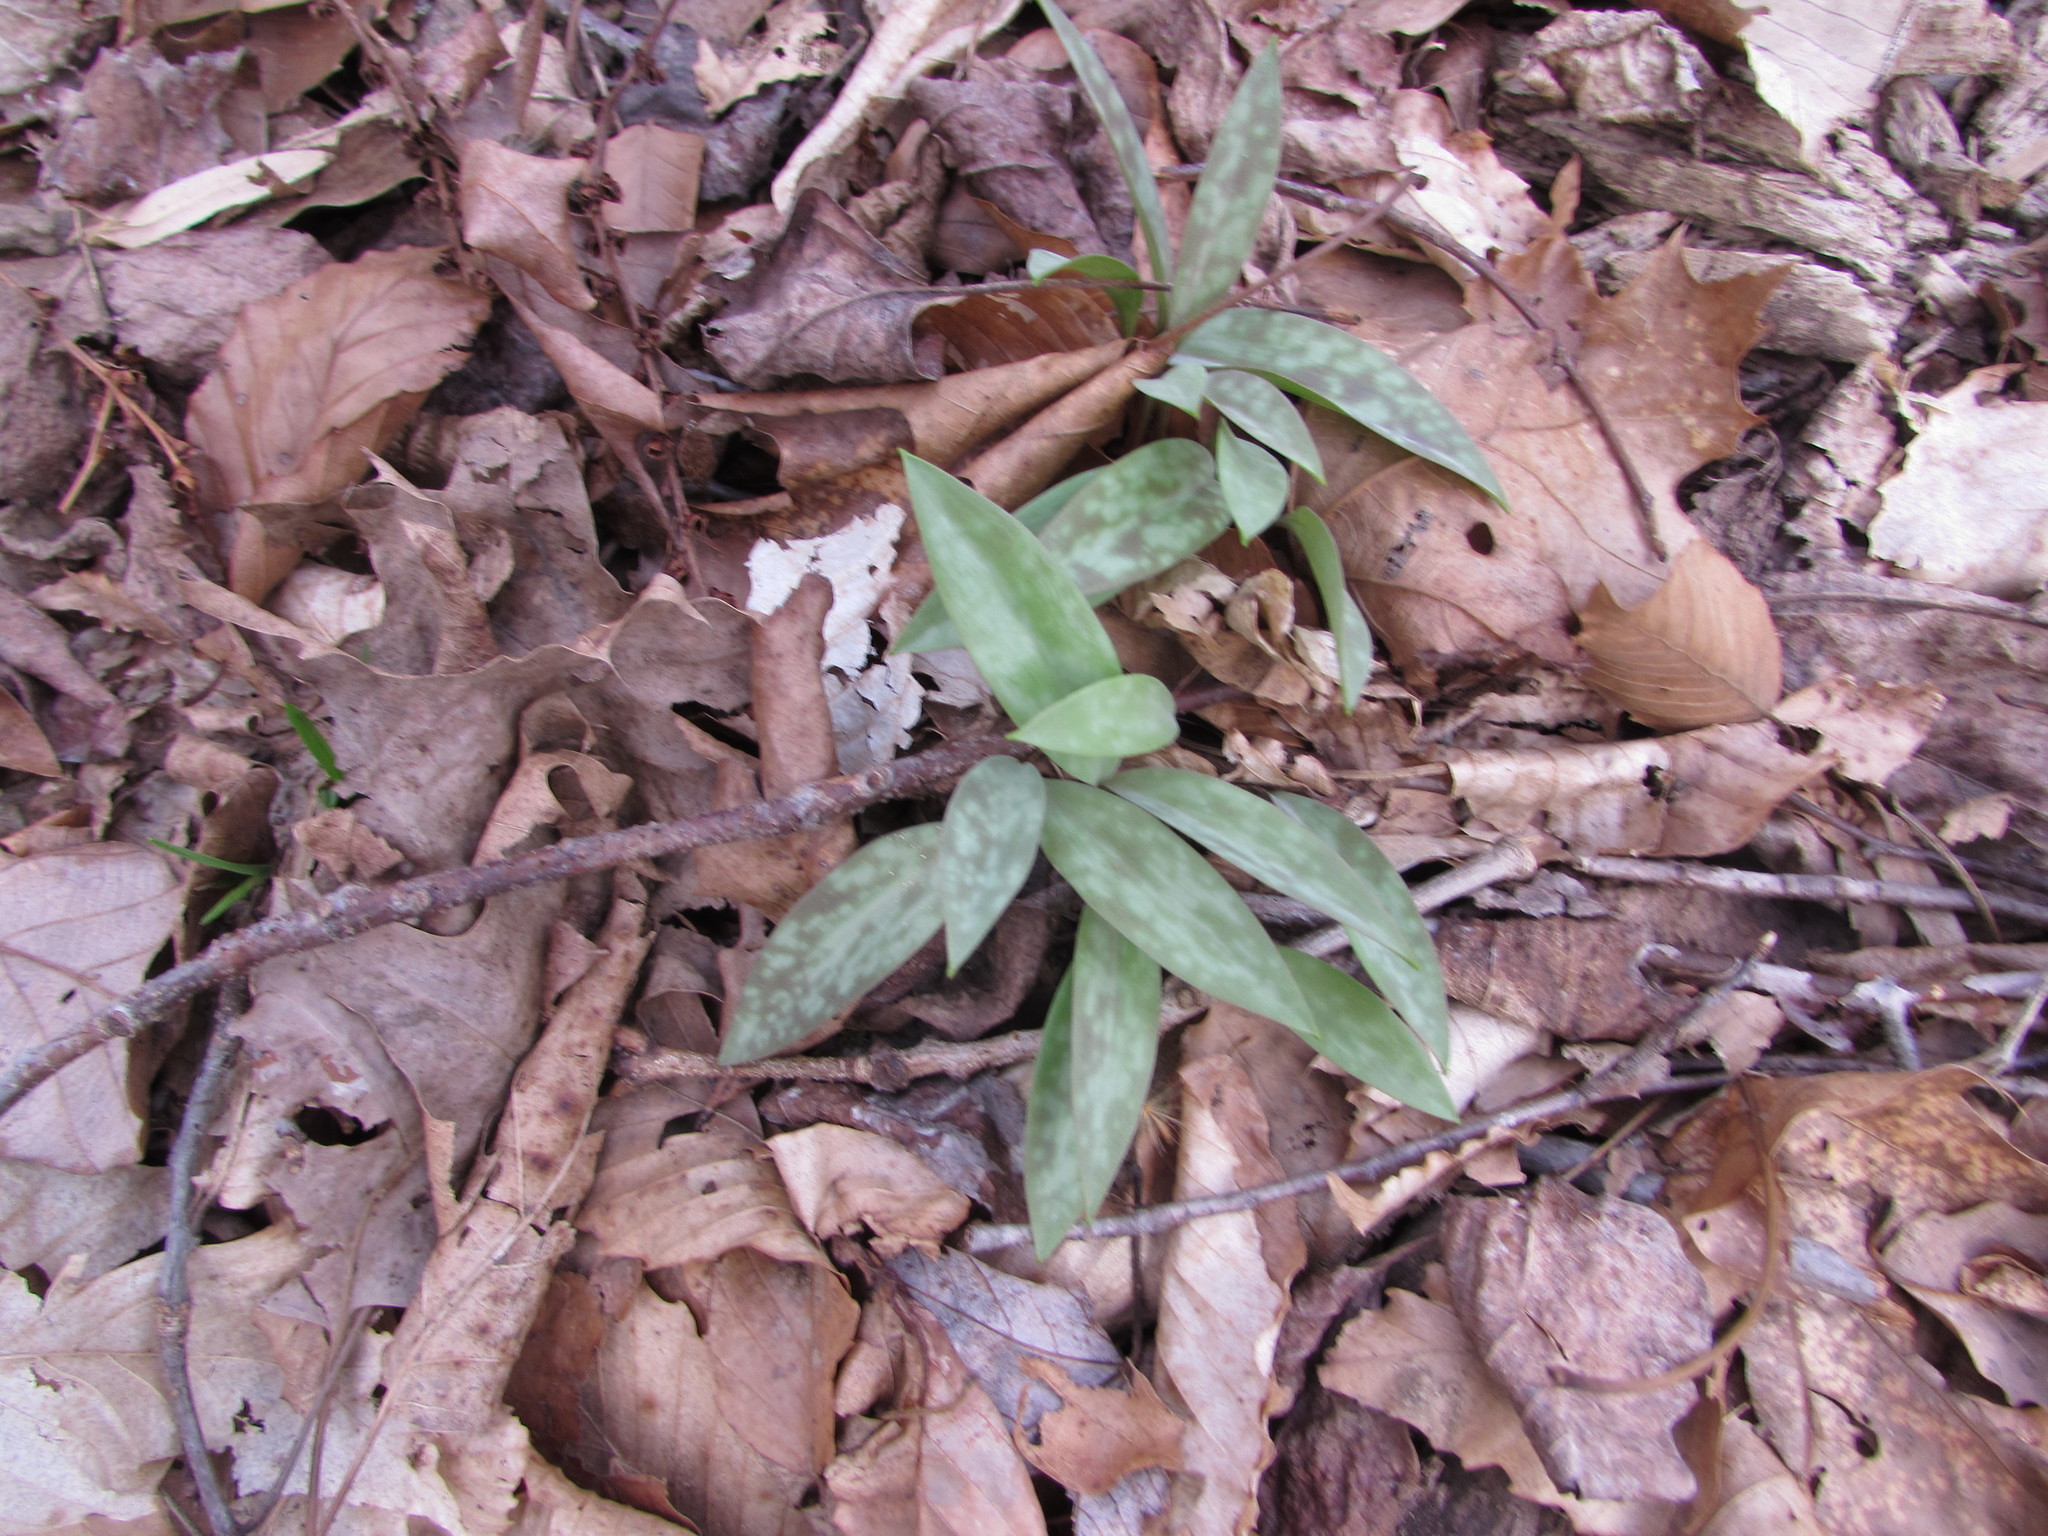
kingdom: Plantae
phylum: Tracheophyta
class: Liliopsida
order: Liliales
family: Liliaceae
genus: Erythronium
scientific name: Erythronium americanum
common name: Yellow adder's-tongue
